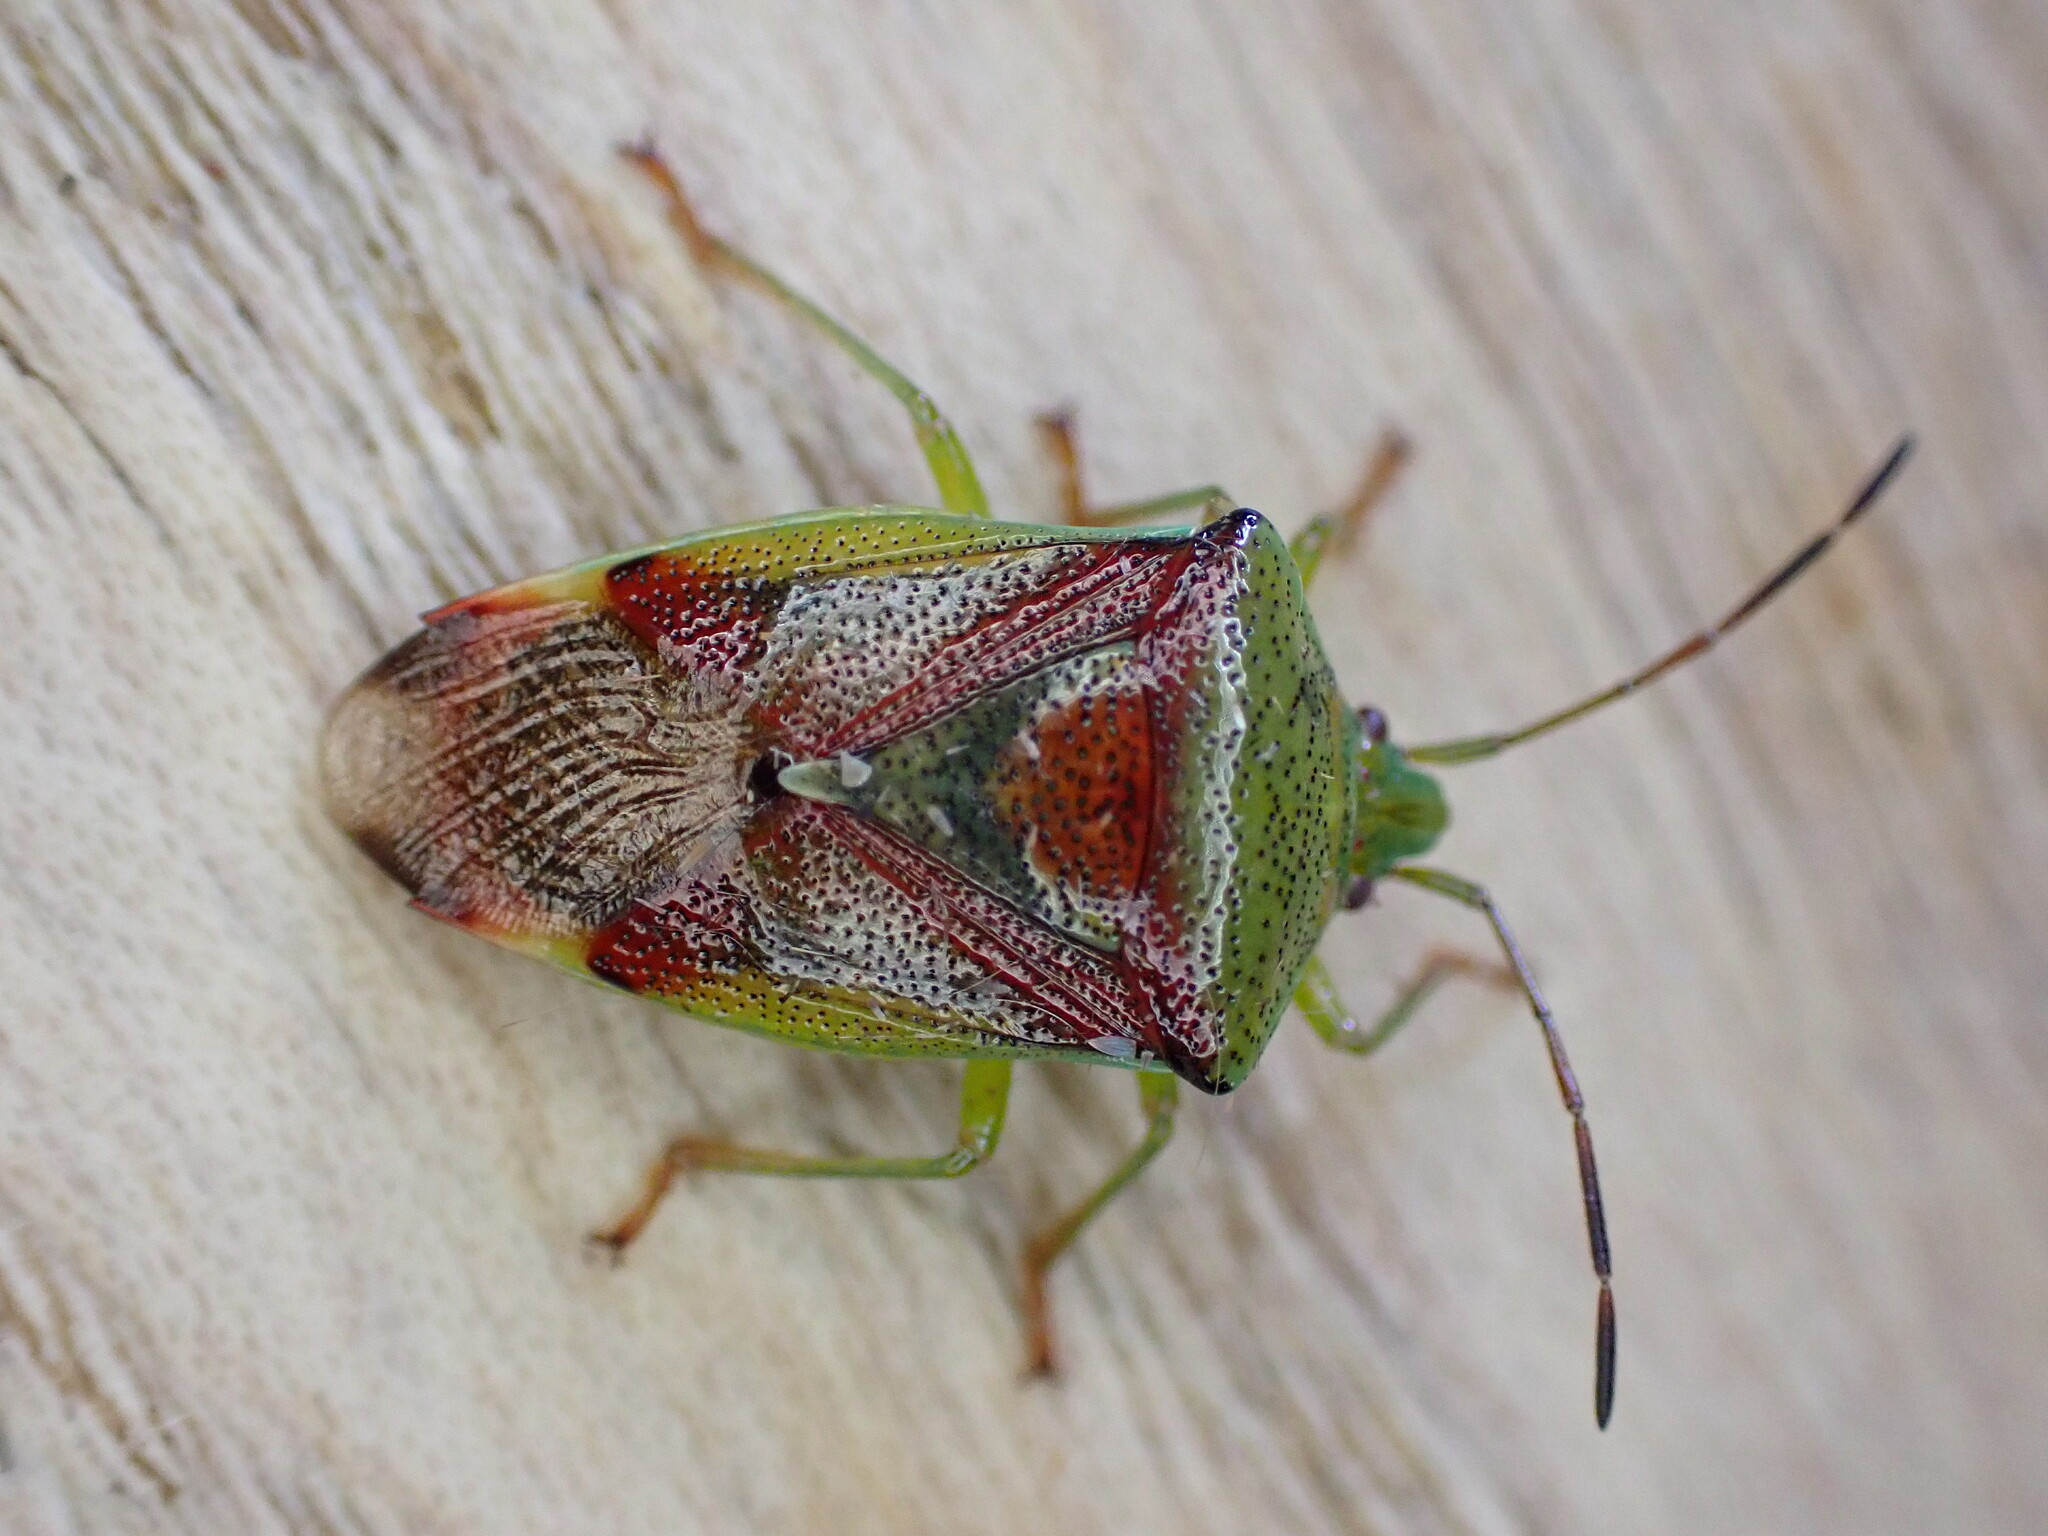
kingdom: Animalia
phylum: Arthropoda
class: Insecta
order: Hemiptera
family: Acanthosomatidae
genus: Elasmostethus
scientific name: Elasmostethus interstinctus
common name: Birch shieldbug
